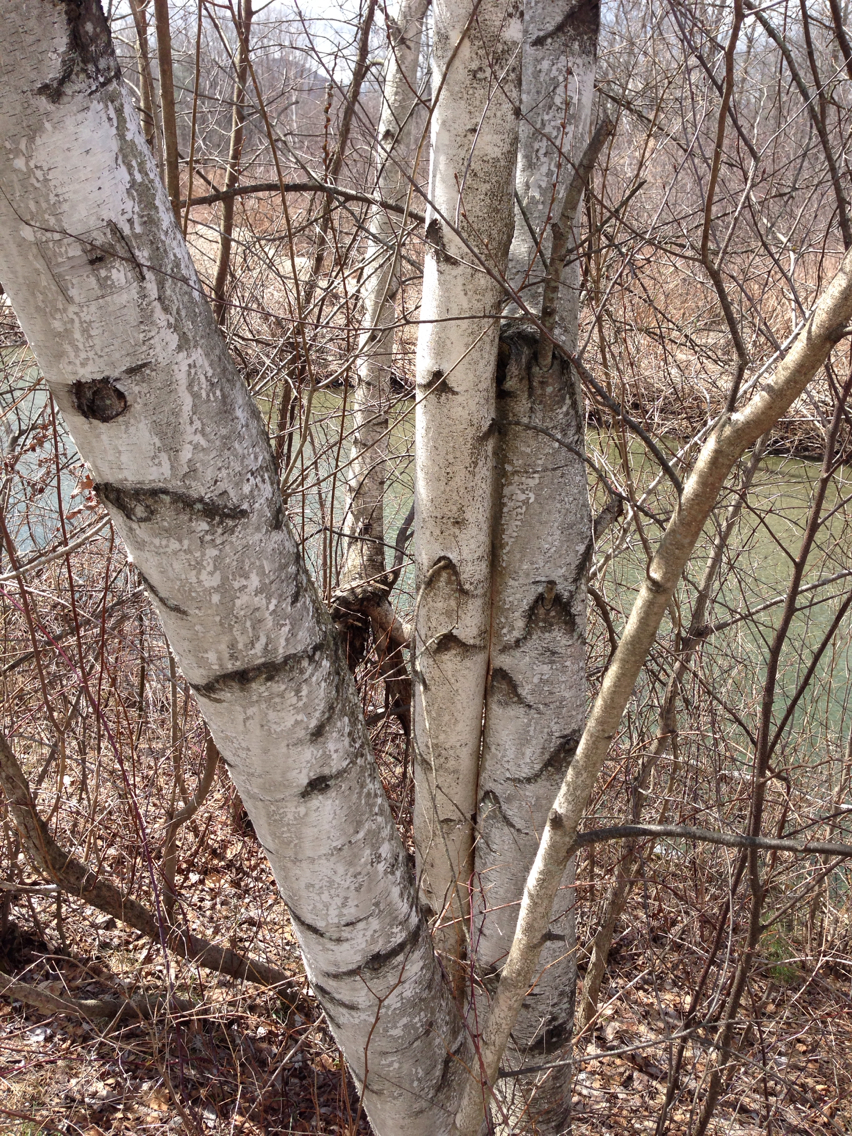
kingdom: Plantae
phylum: Tracheophyta
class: Magnoliopsida
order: Fagales
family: Betulaceae
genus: Betula
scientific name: Betula populifolia
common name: Fire birch
